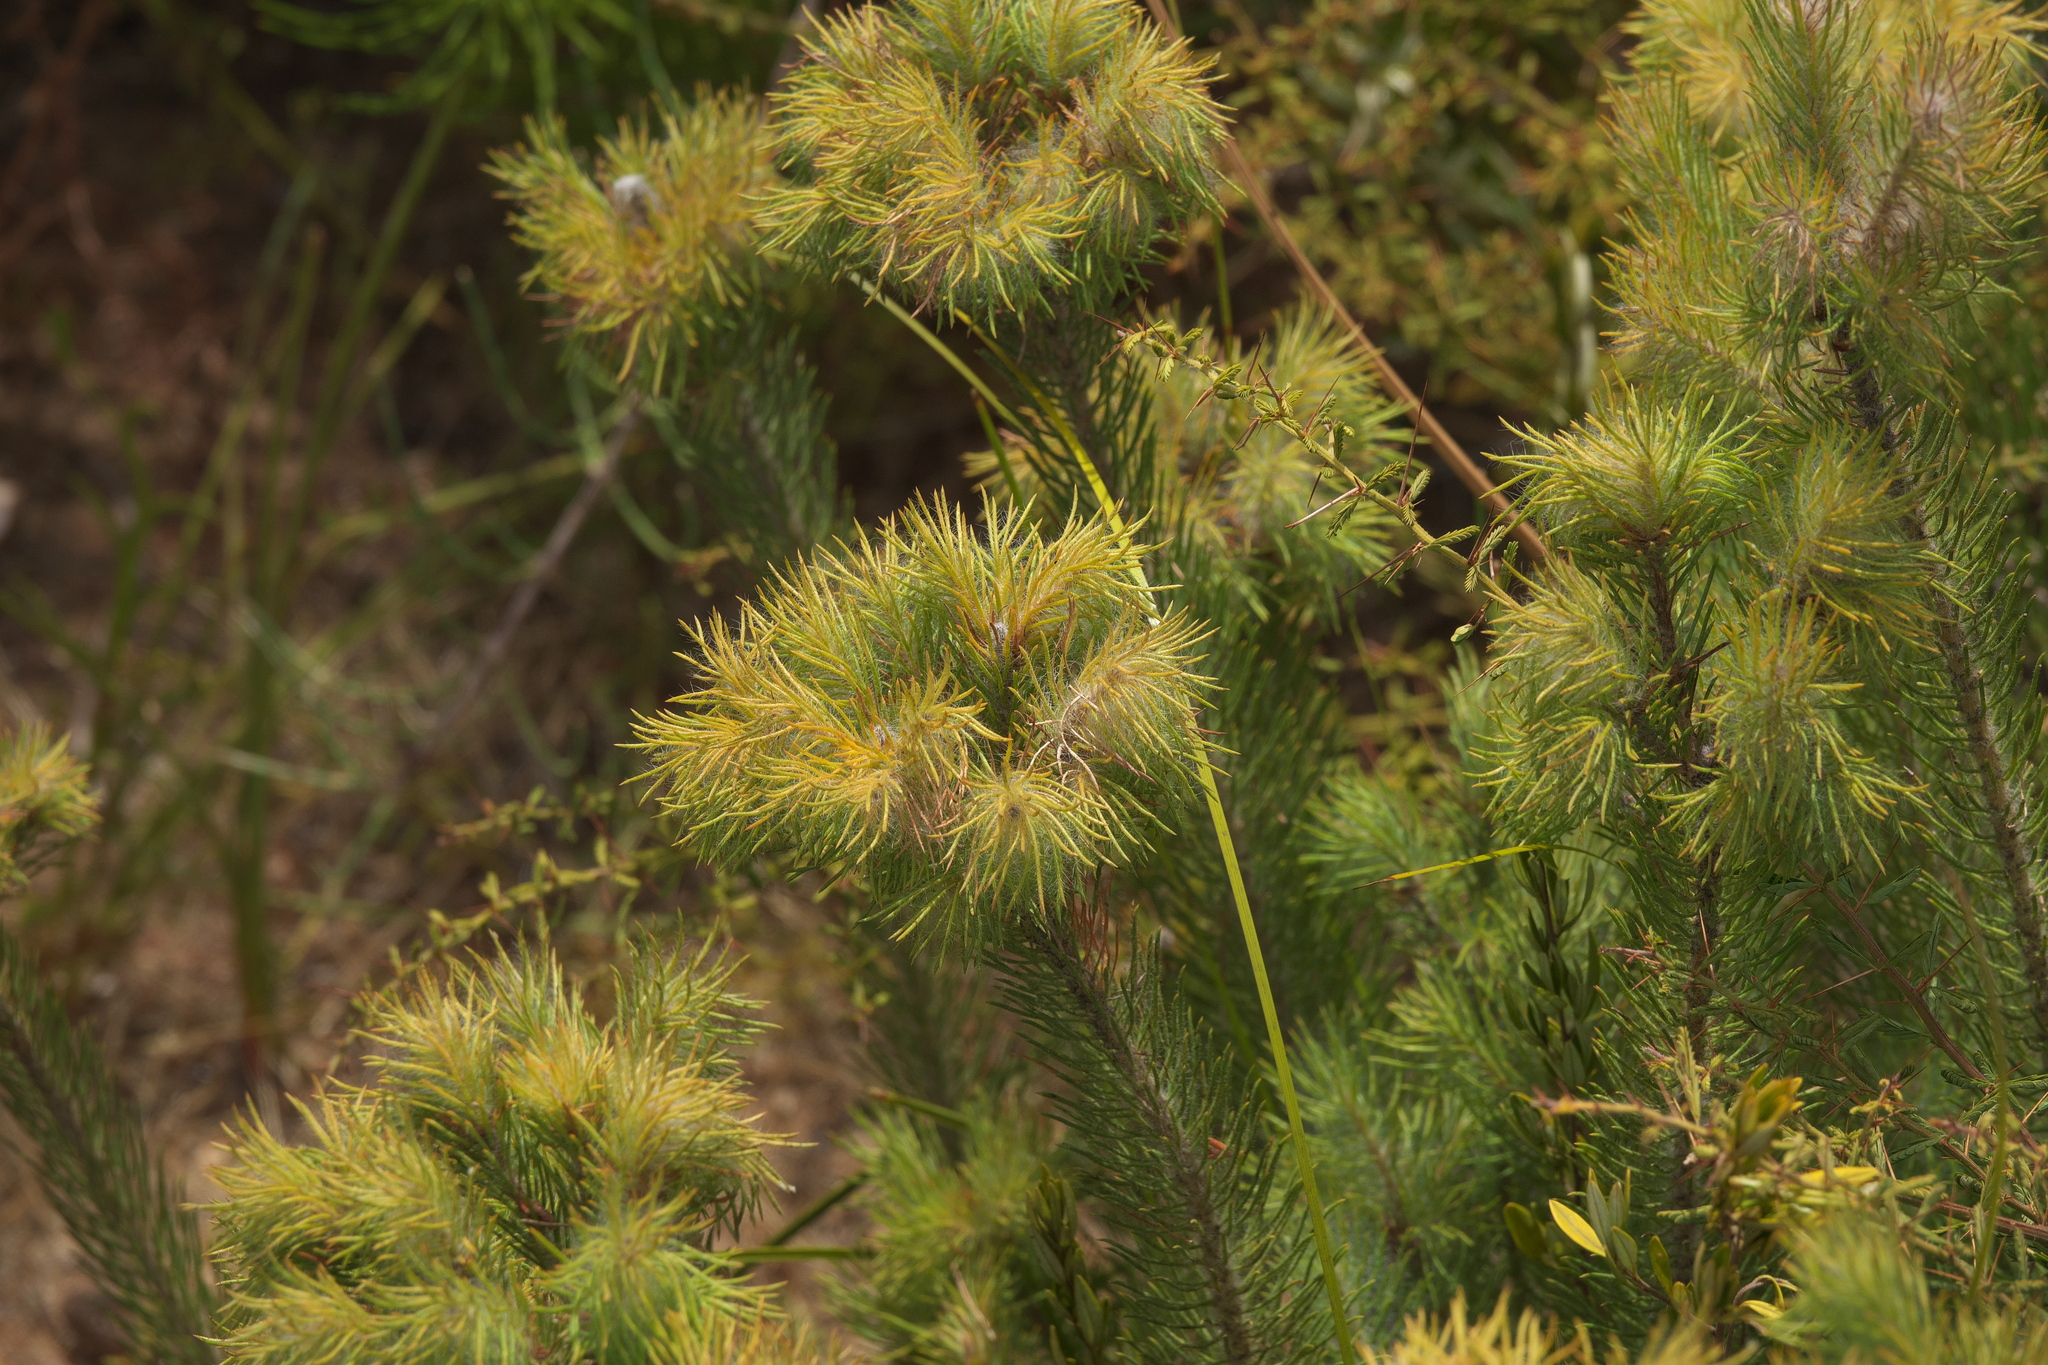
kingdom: Plantae
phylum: Tracheophyta
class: Magnoliopsida
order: Myrtales
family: Myrtaceae
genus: Melaleuca
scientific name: Melaleuca cruenta
